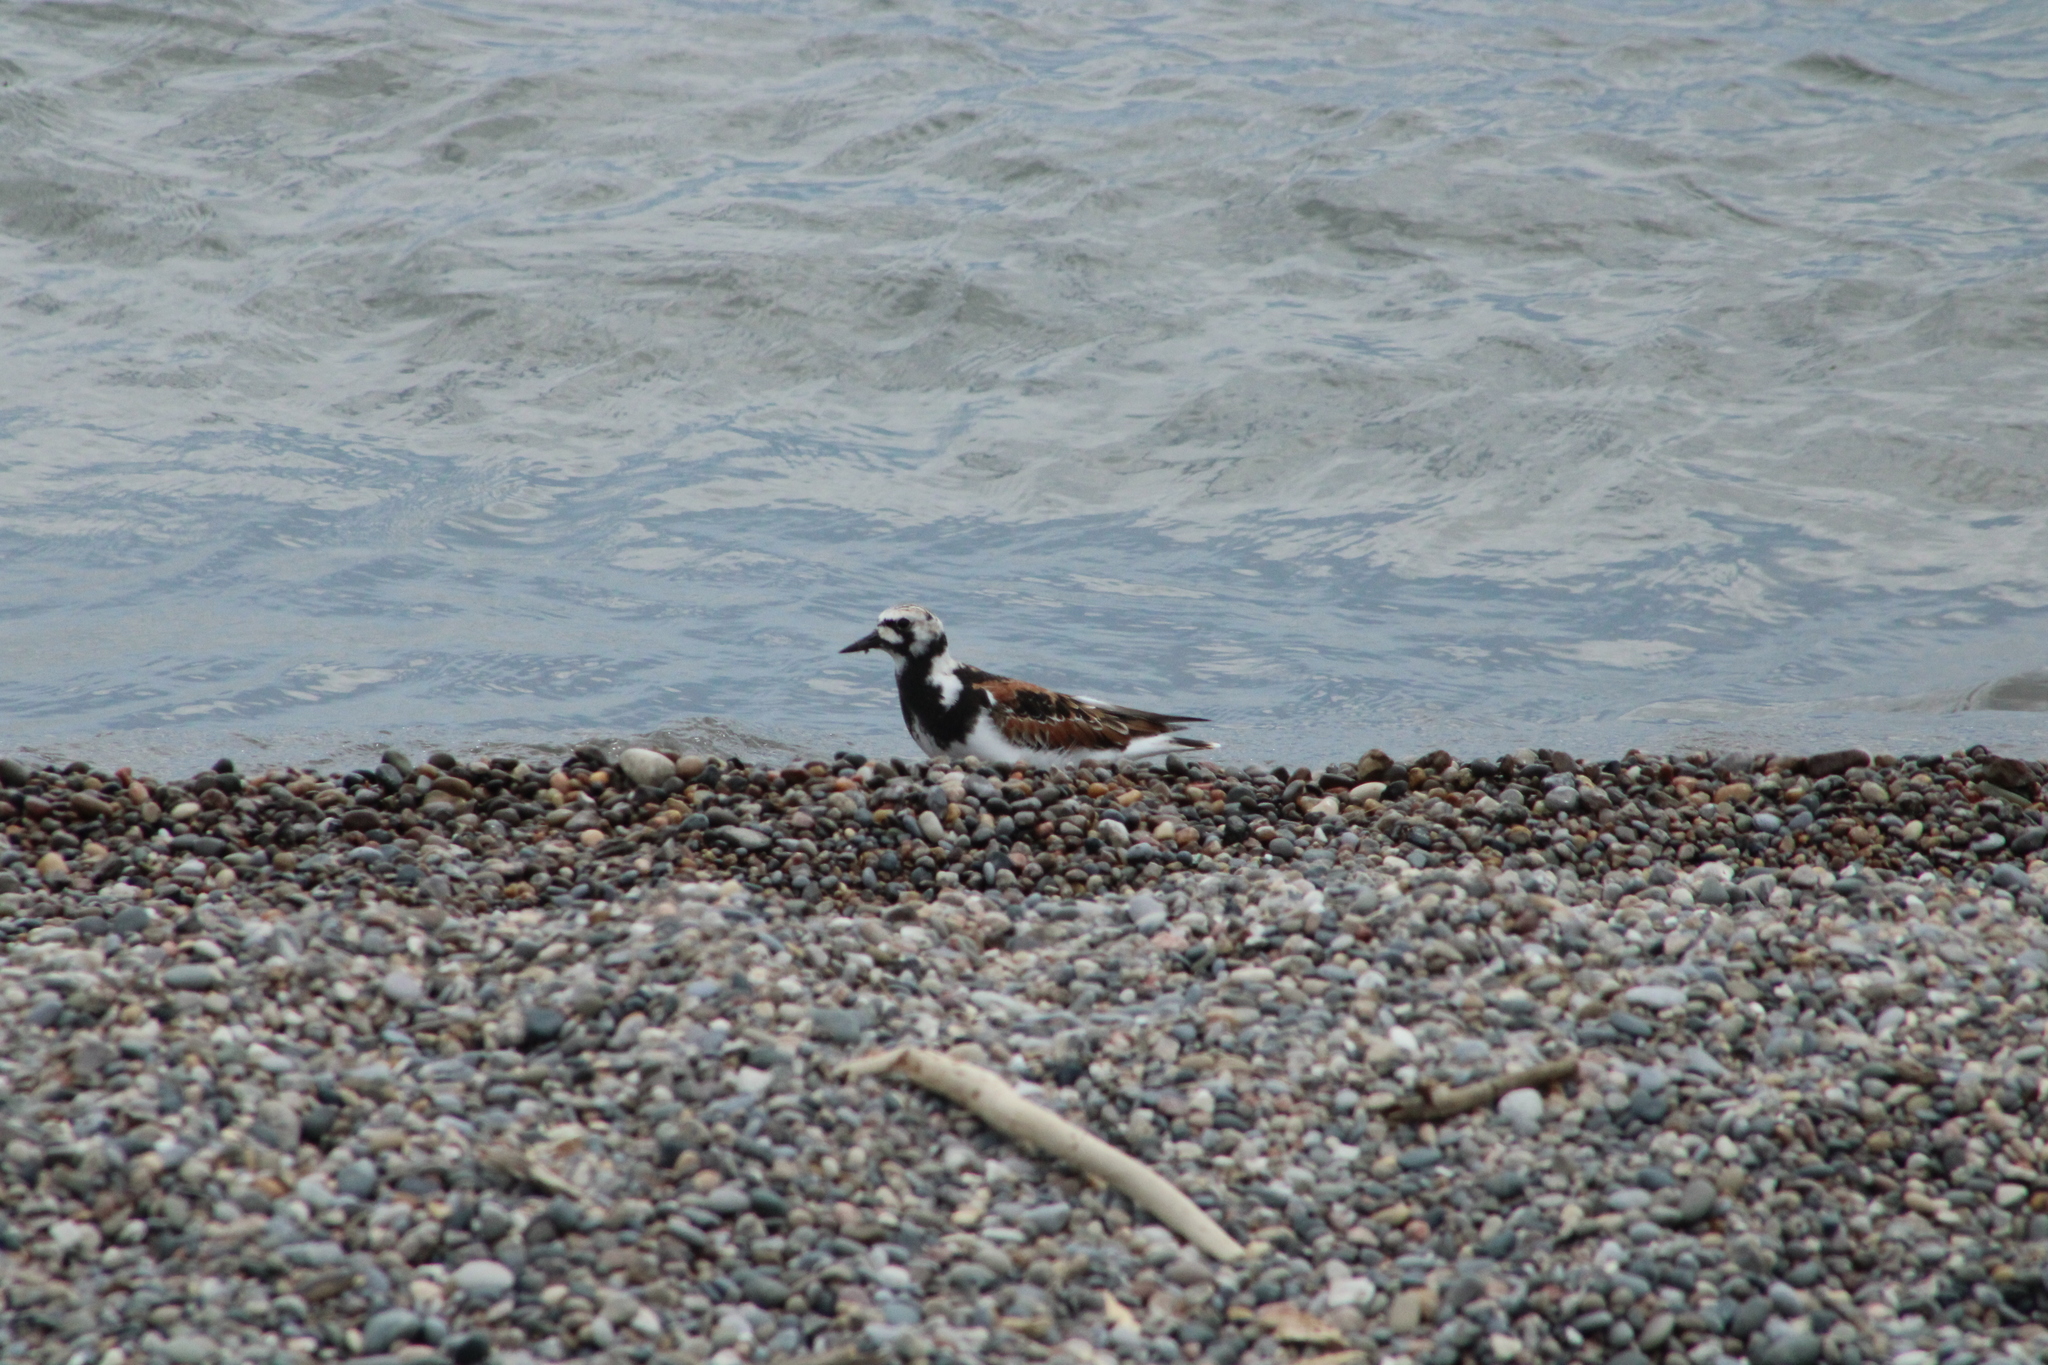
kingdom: Animalia
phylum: Chordata
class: Aves
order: Charadriiformes
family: Scolopacidae
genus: Arenaria
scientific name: Arenaria interpres
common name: Ruddy turnstone
